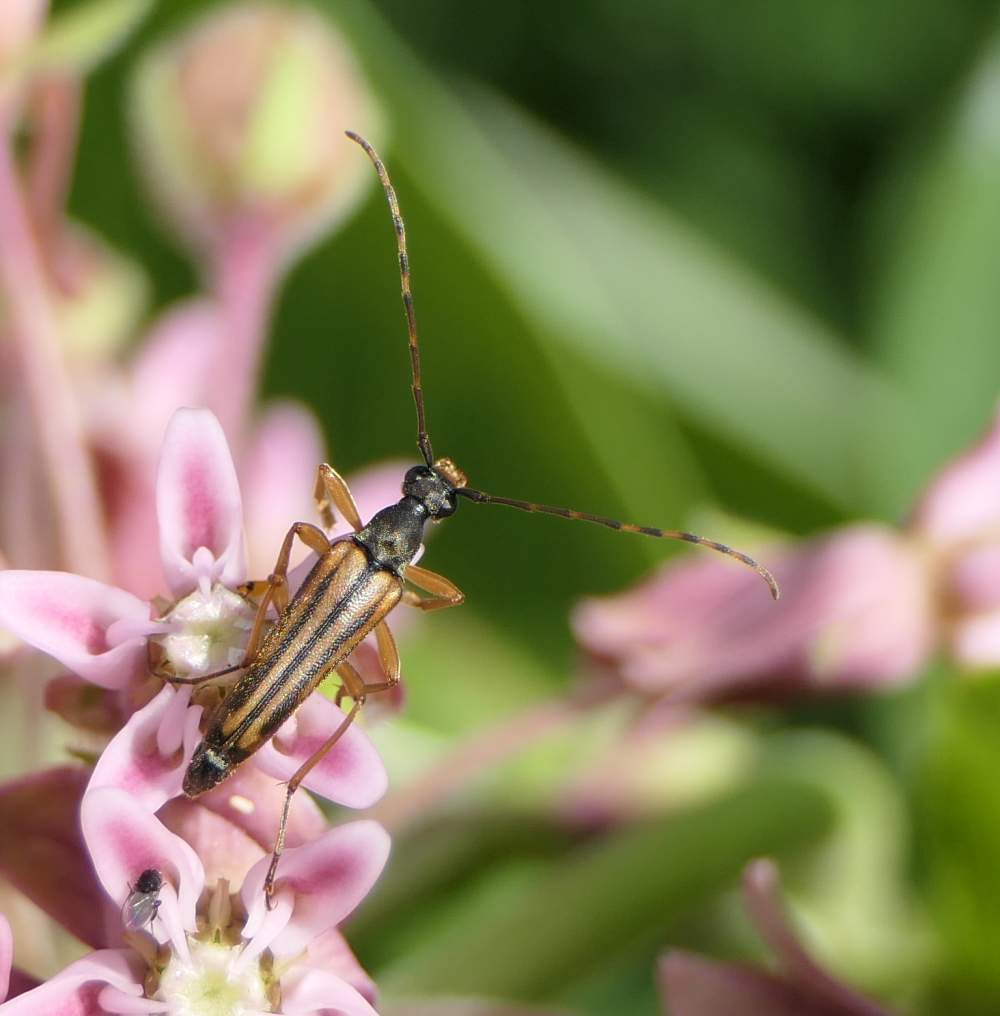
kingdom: Animalia
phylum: Arthropoda
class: Insecta
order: Coleoptera
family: Cerambycidae
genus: Analeptura
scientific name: Analeptura lineola
